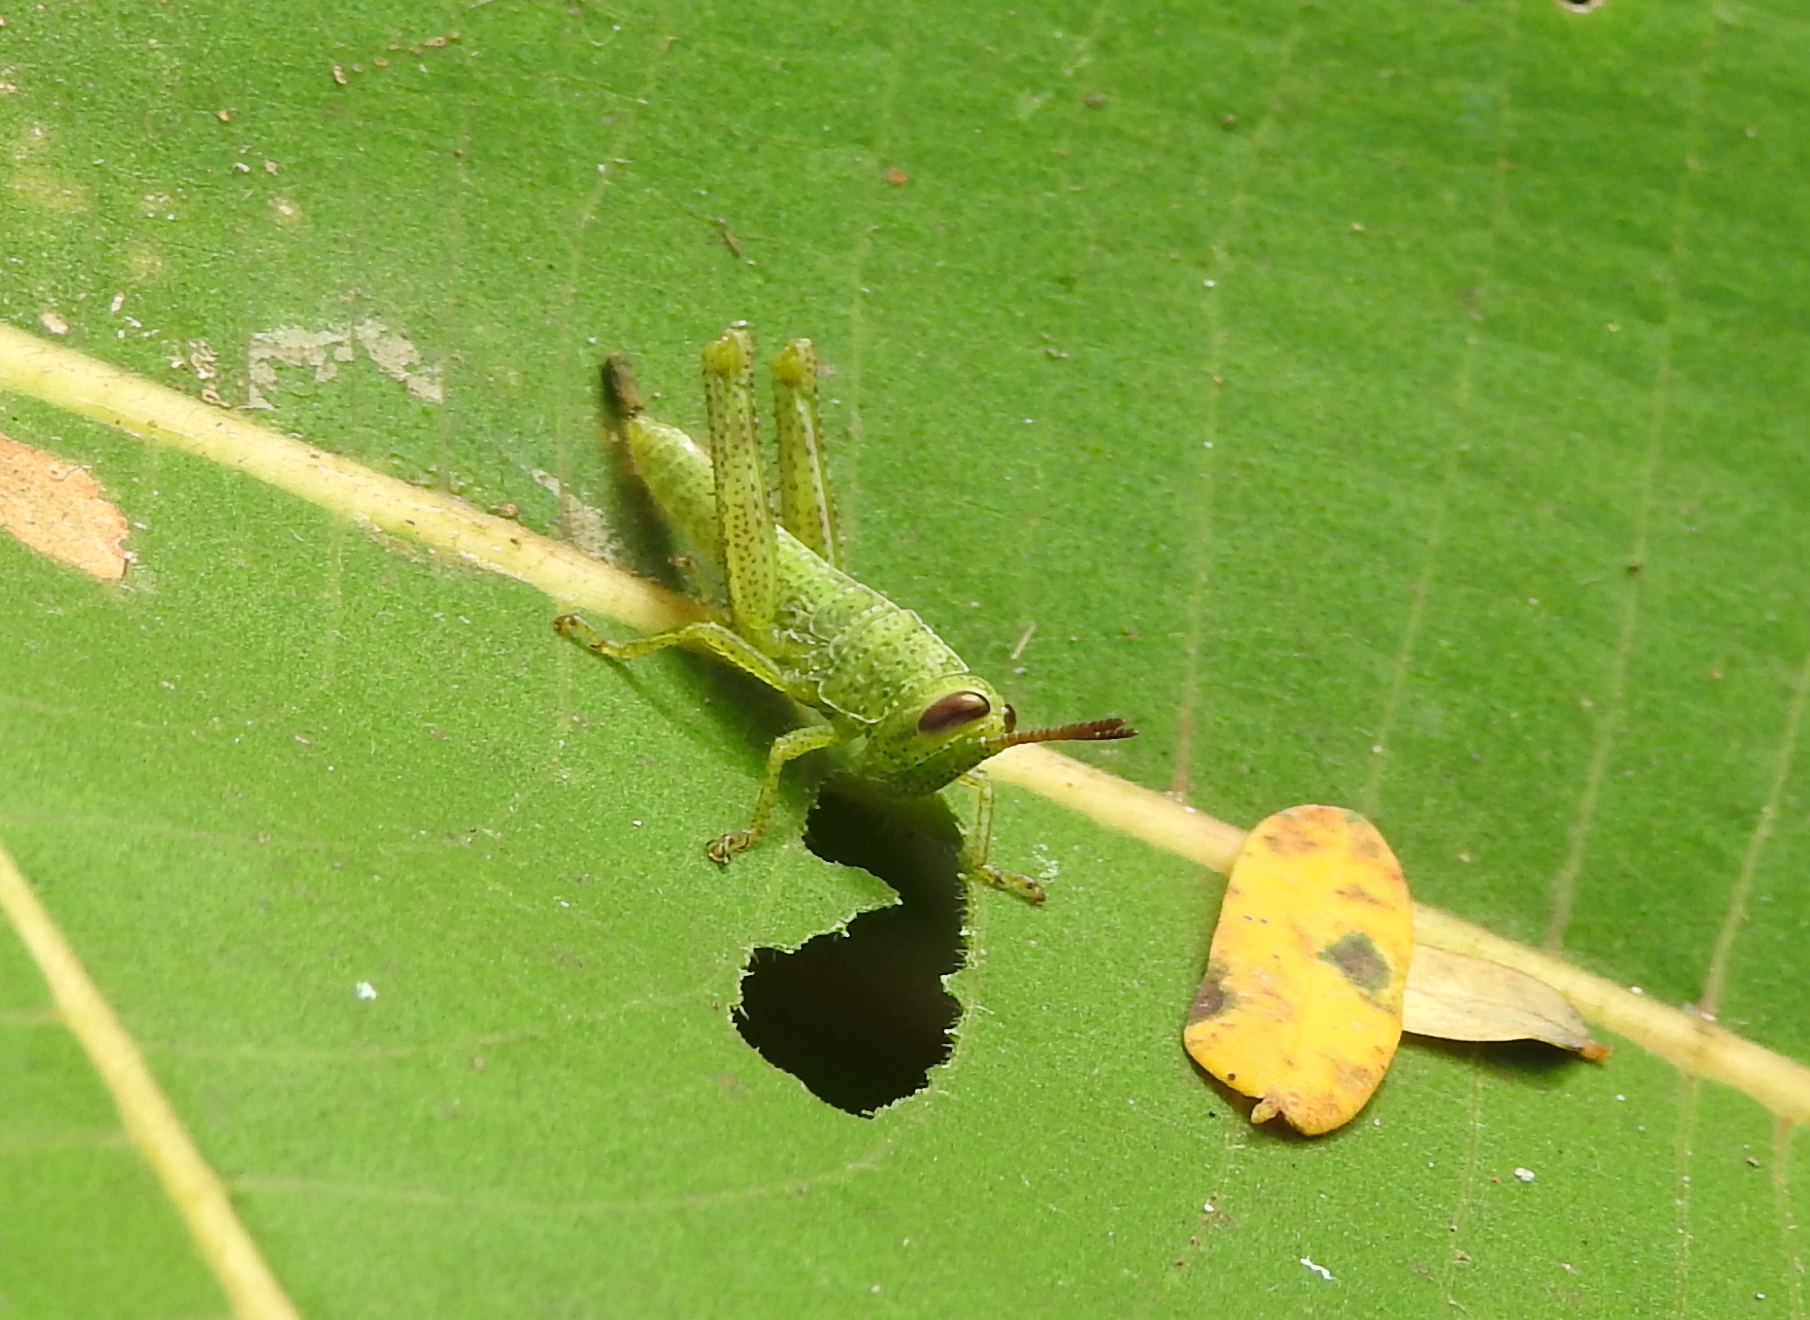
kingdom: Animalia
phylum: Arthropoda
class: Insecta
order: Orthoptera
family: Acrididae
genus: Valanga
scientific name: Valanga nigricornis
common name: Javanese bird grasshopper
